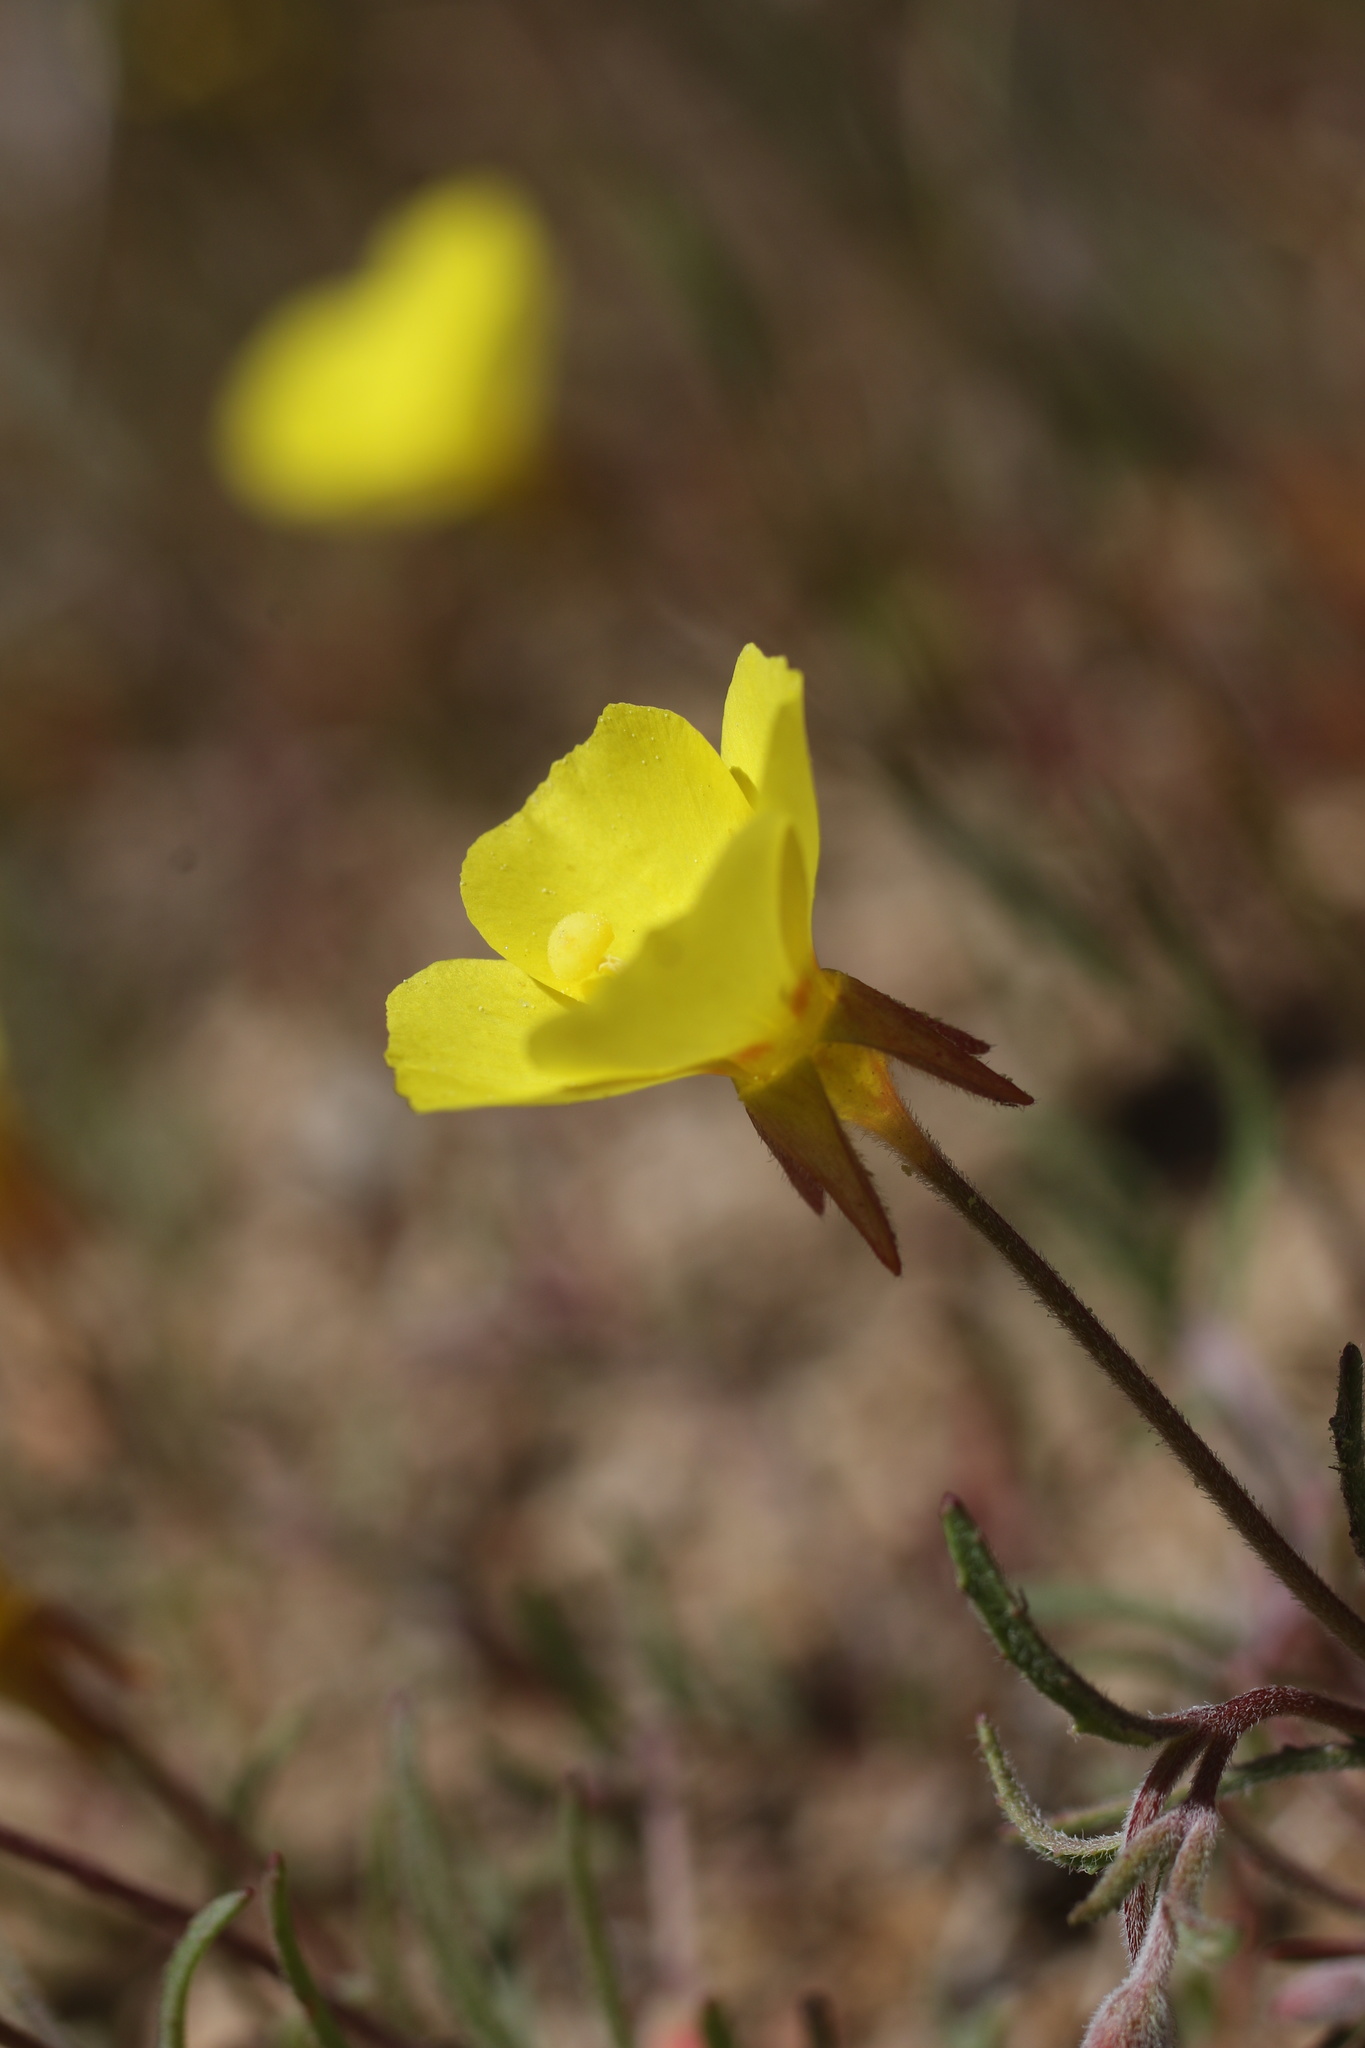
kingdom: Plantae
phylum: Tracheophyta
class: Magnoliopsida
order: Myrtales
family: Onagraceae
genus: Camissonia
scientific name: Camissonia campestris
